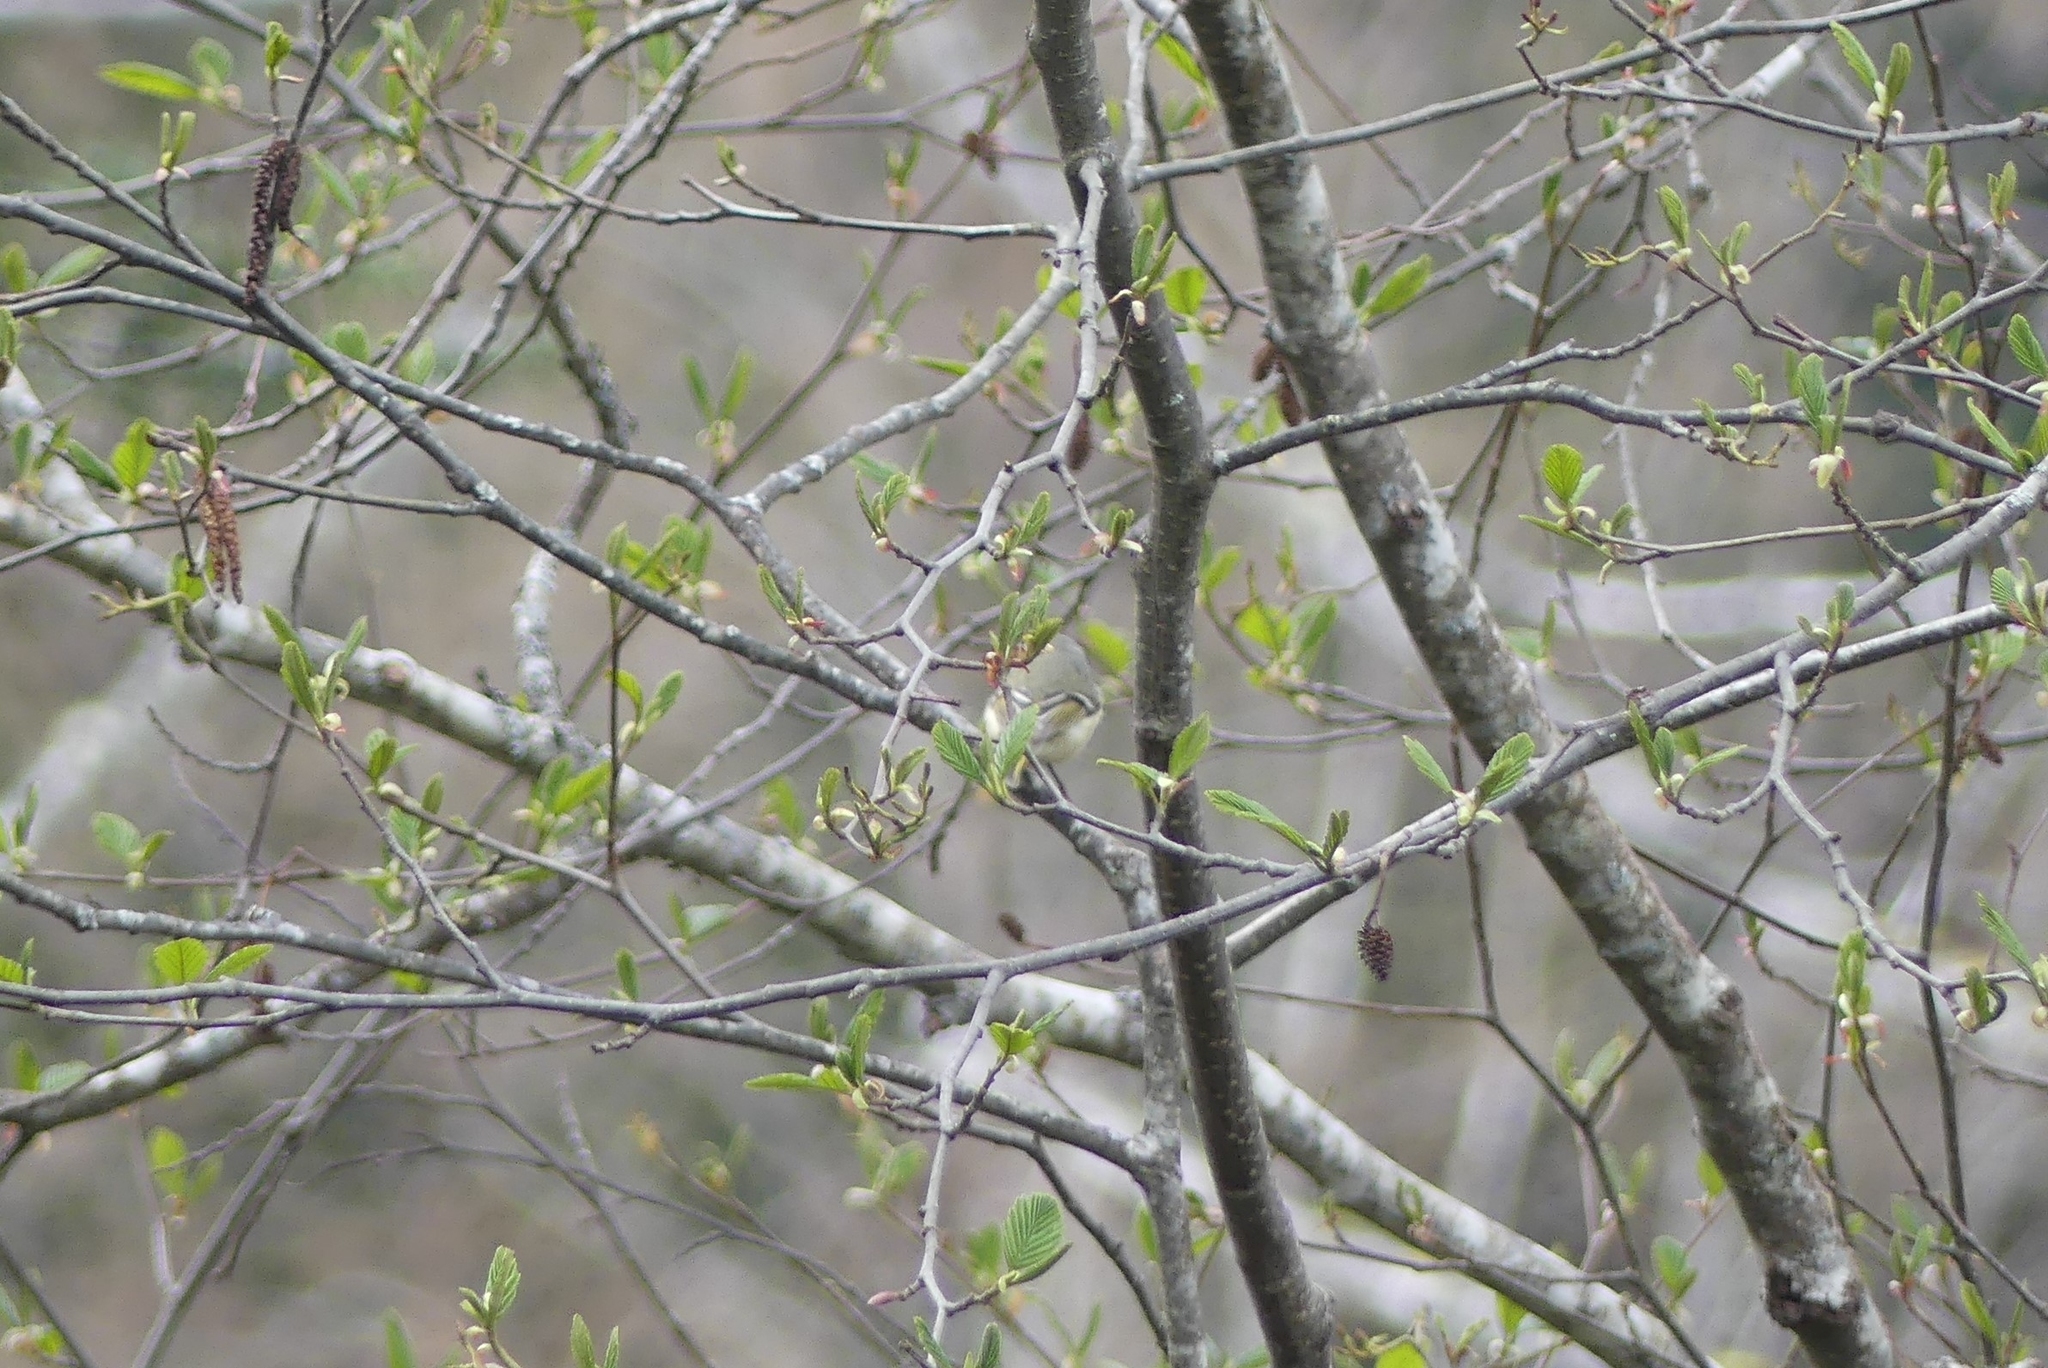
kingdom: Animalia
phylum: Chordata
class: Aves
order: Passeriformes
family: Regulidae
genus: Regulus
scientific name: Regulus calendula
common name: Ruby-crowned kinglet
